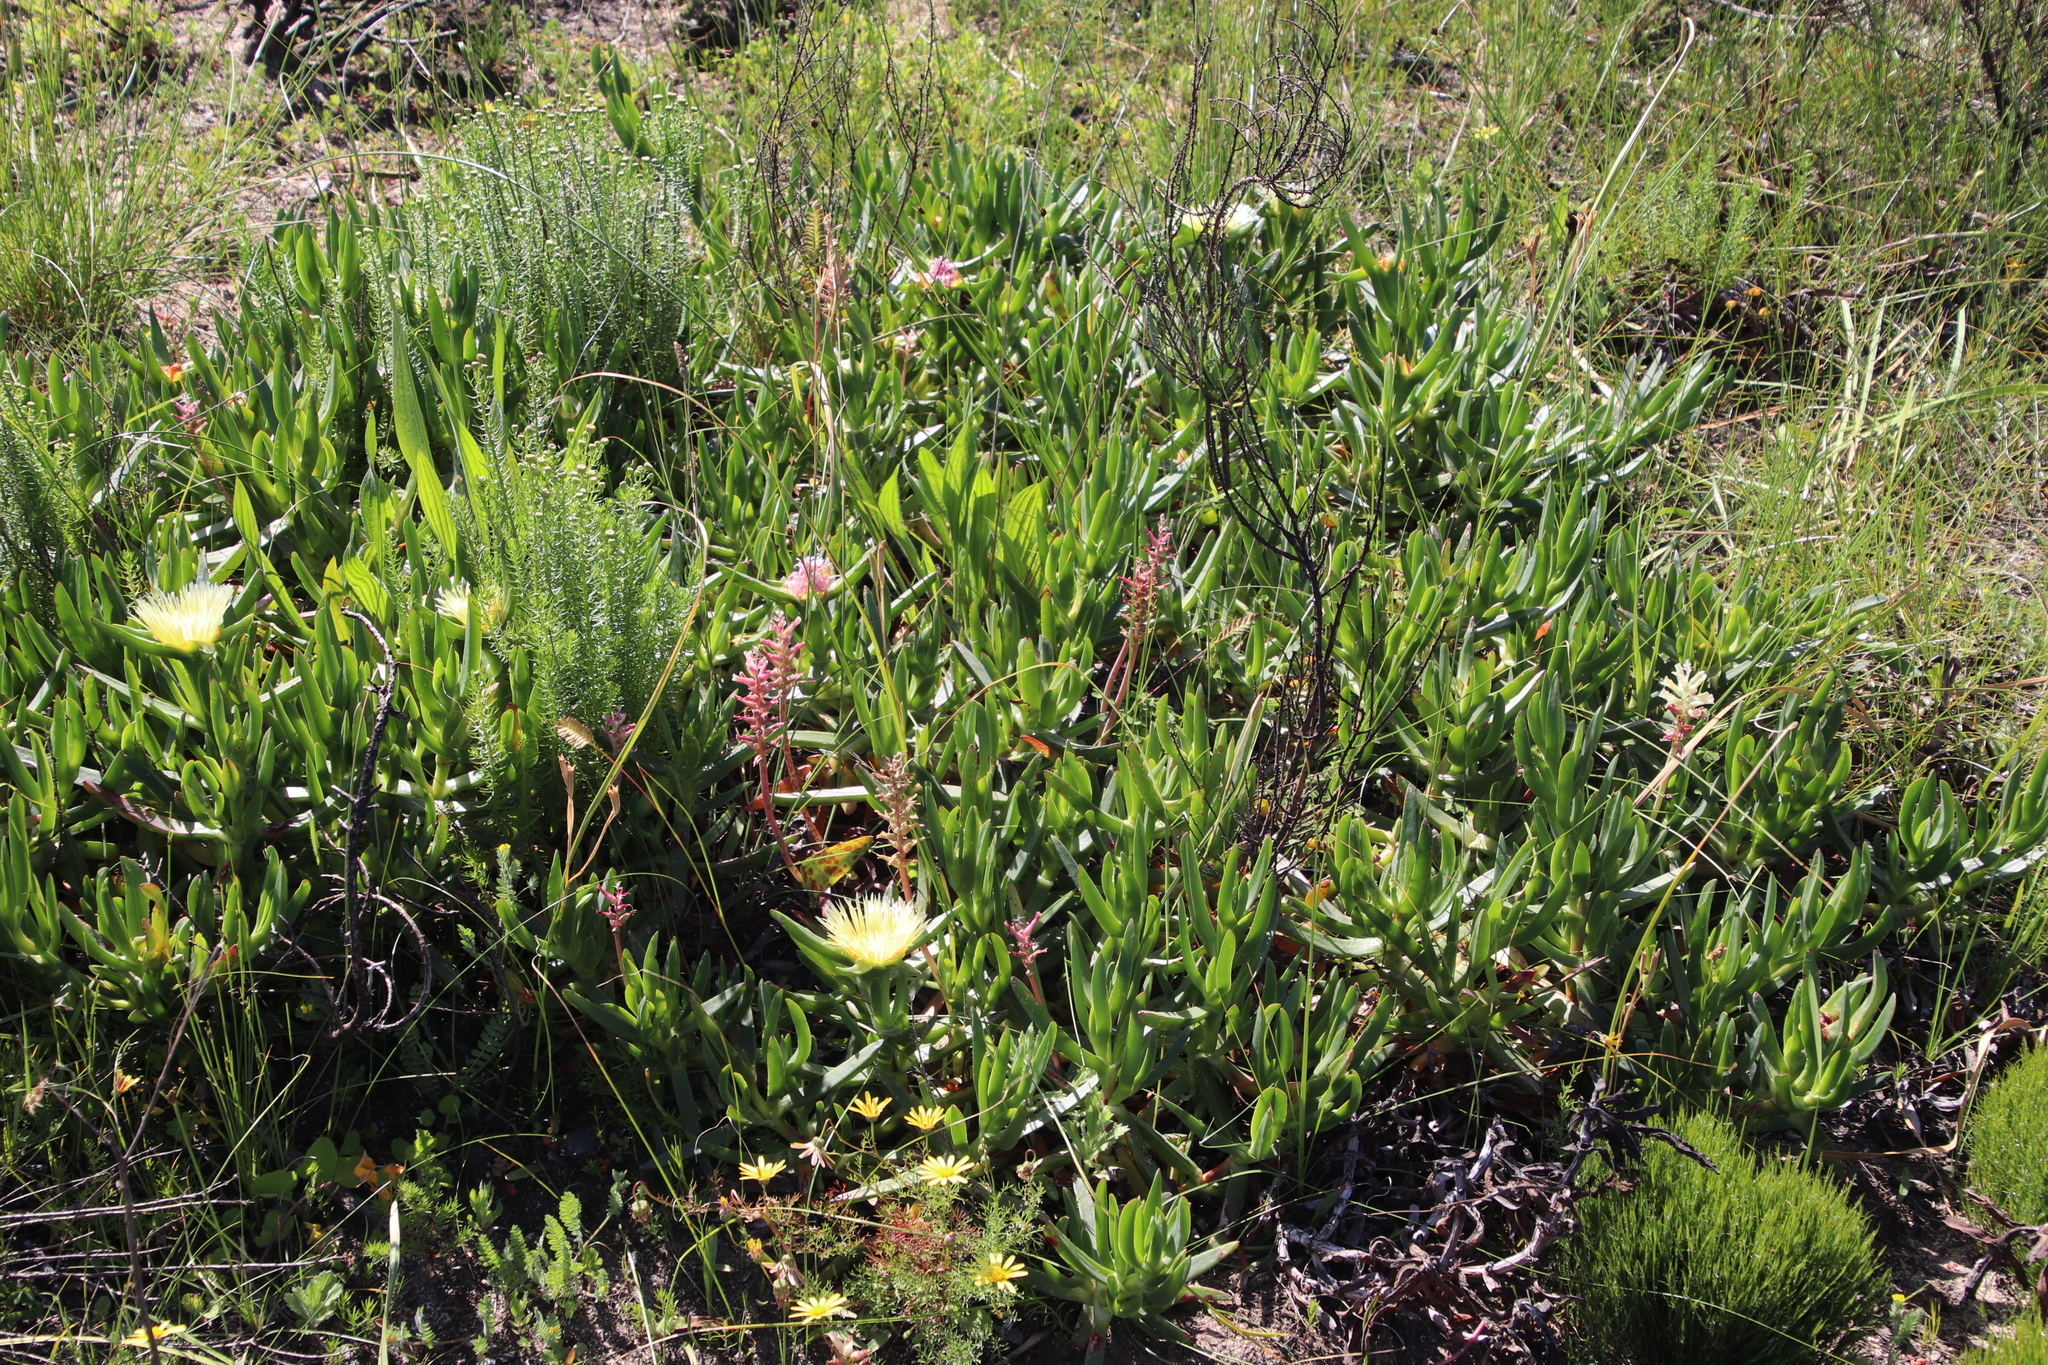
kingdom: Plantae
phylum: Tracheophyta
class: Liliopsida
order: Asparagales
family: Asparagaceae
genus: Lachenalia
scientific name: Lachenalia capensis
